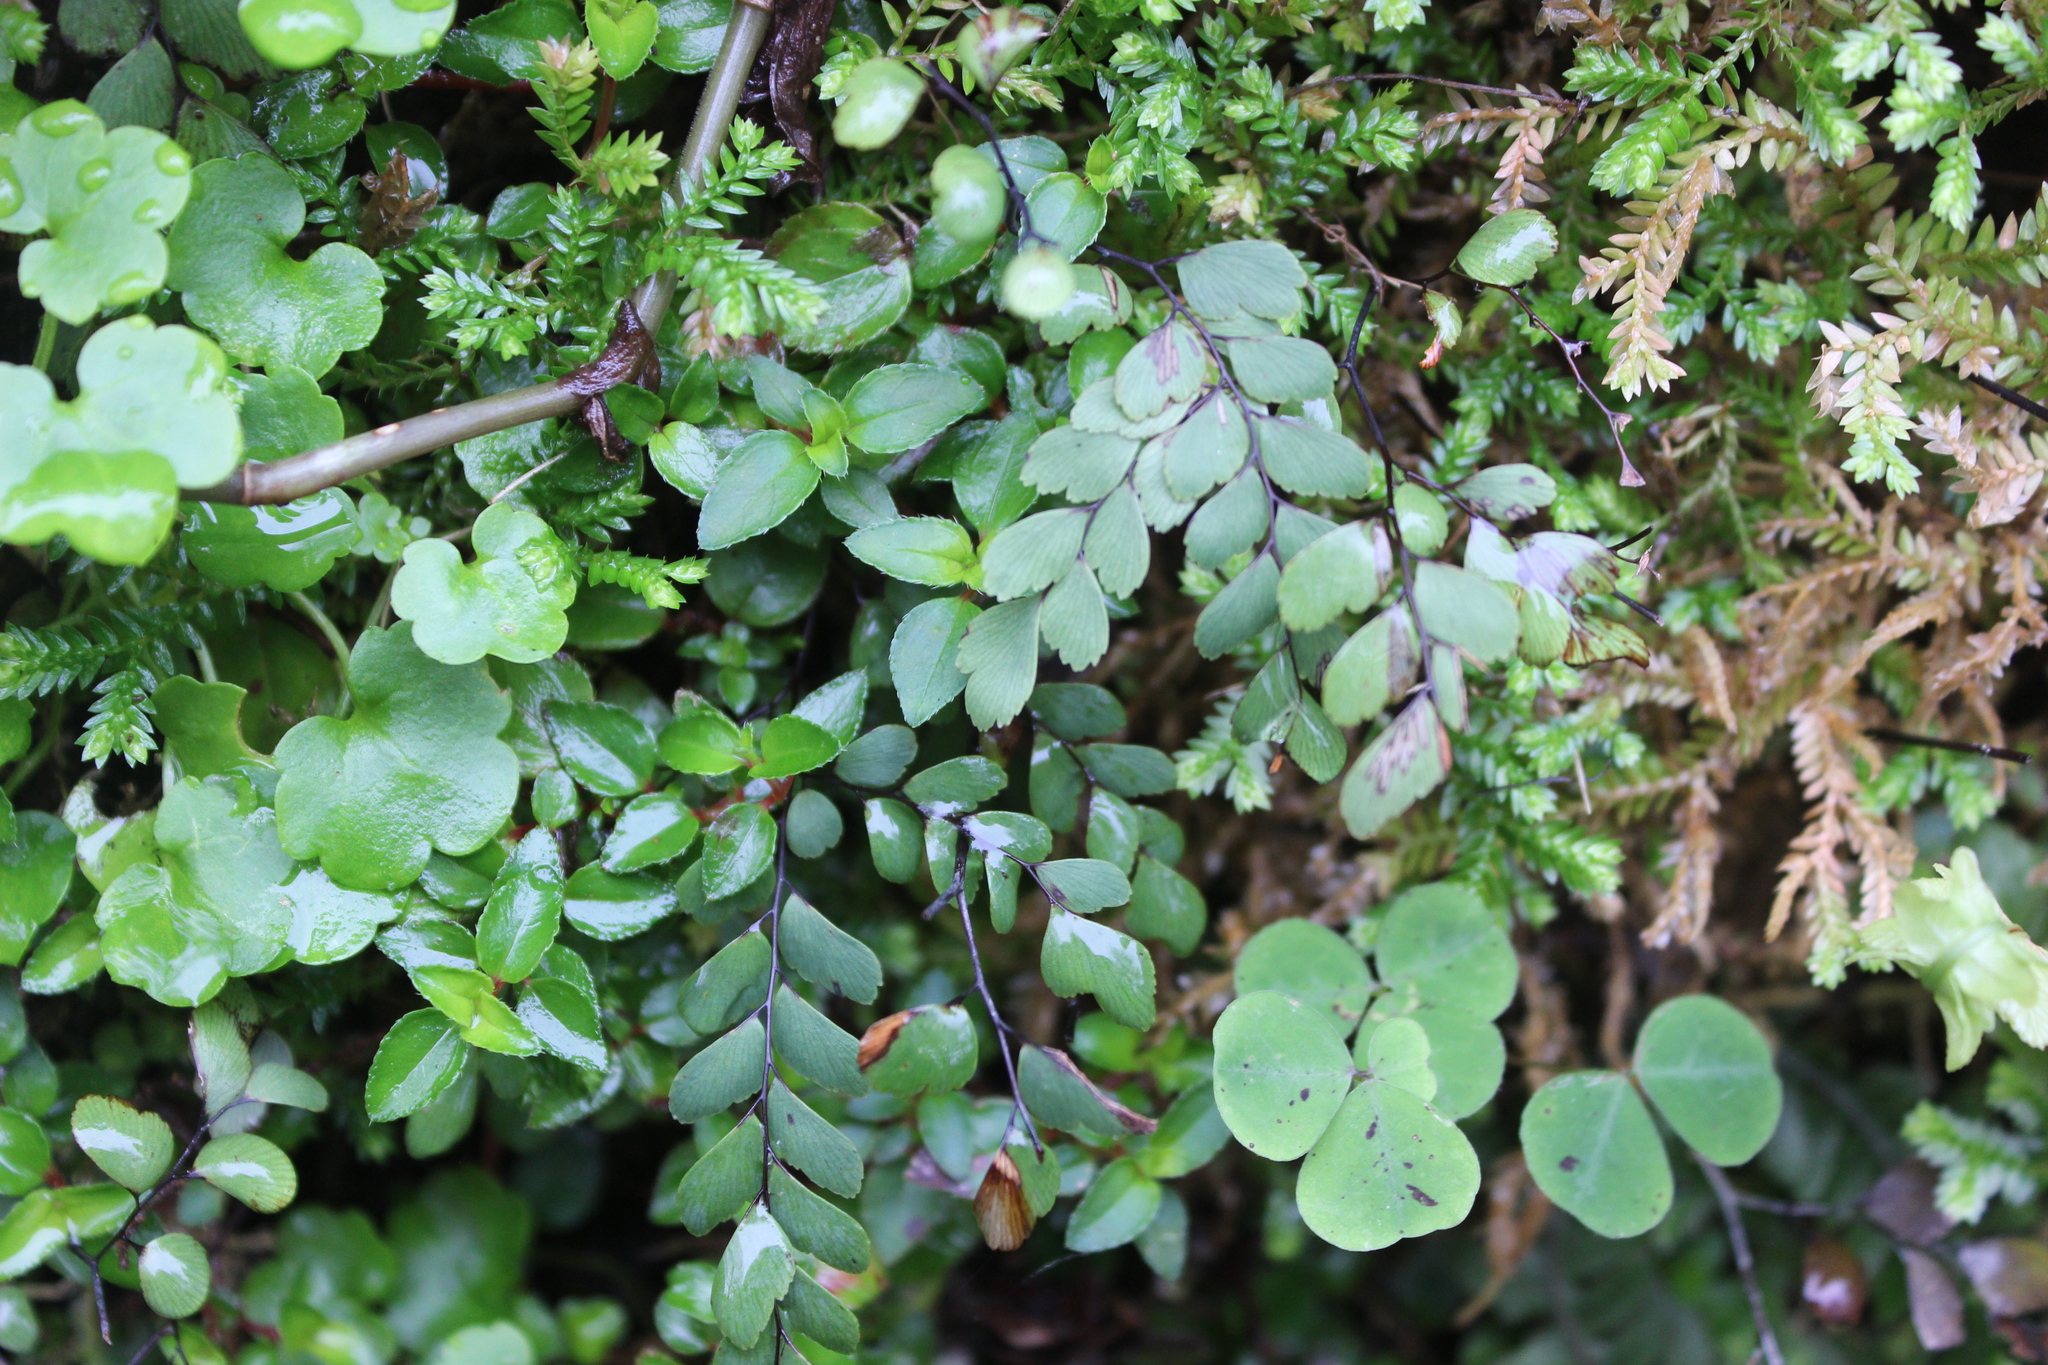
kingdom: Plantae
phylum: Tracheophyta
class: Polypodiopsida
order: Polypodiales
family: Pteridaceae
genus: Adiantum
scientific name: Adiantum cunninghamii
